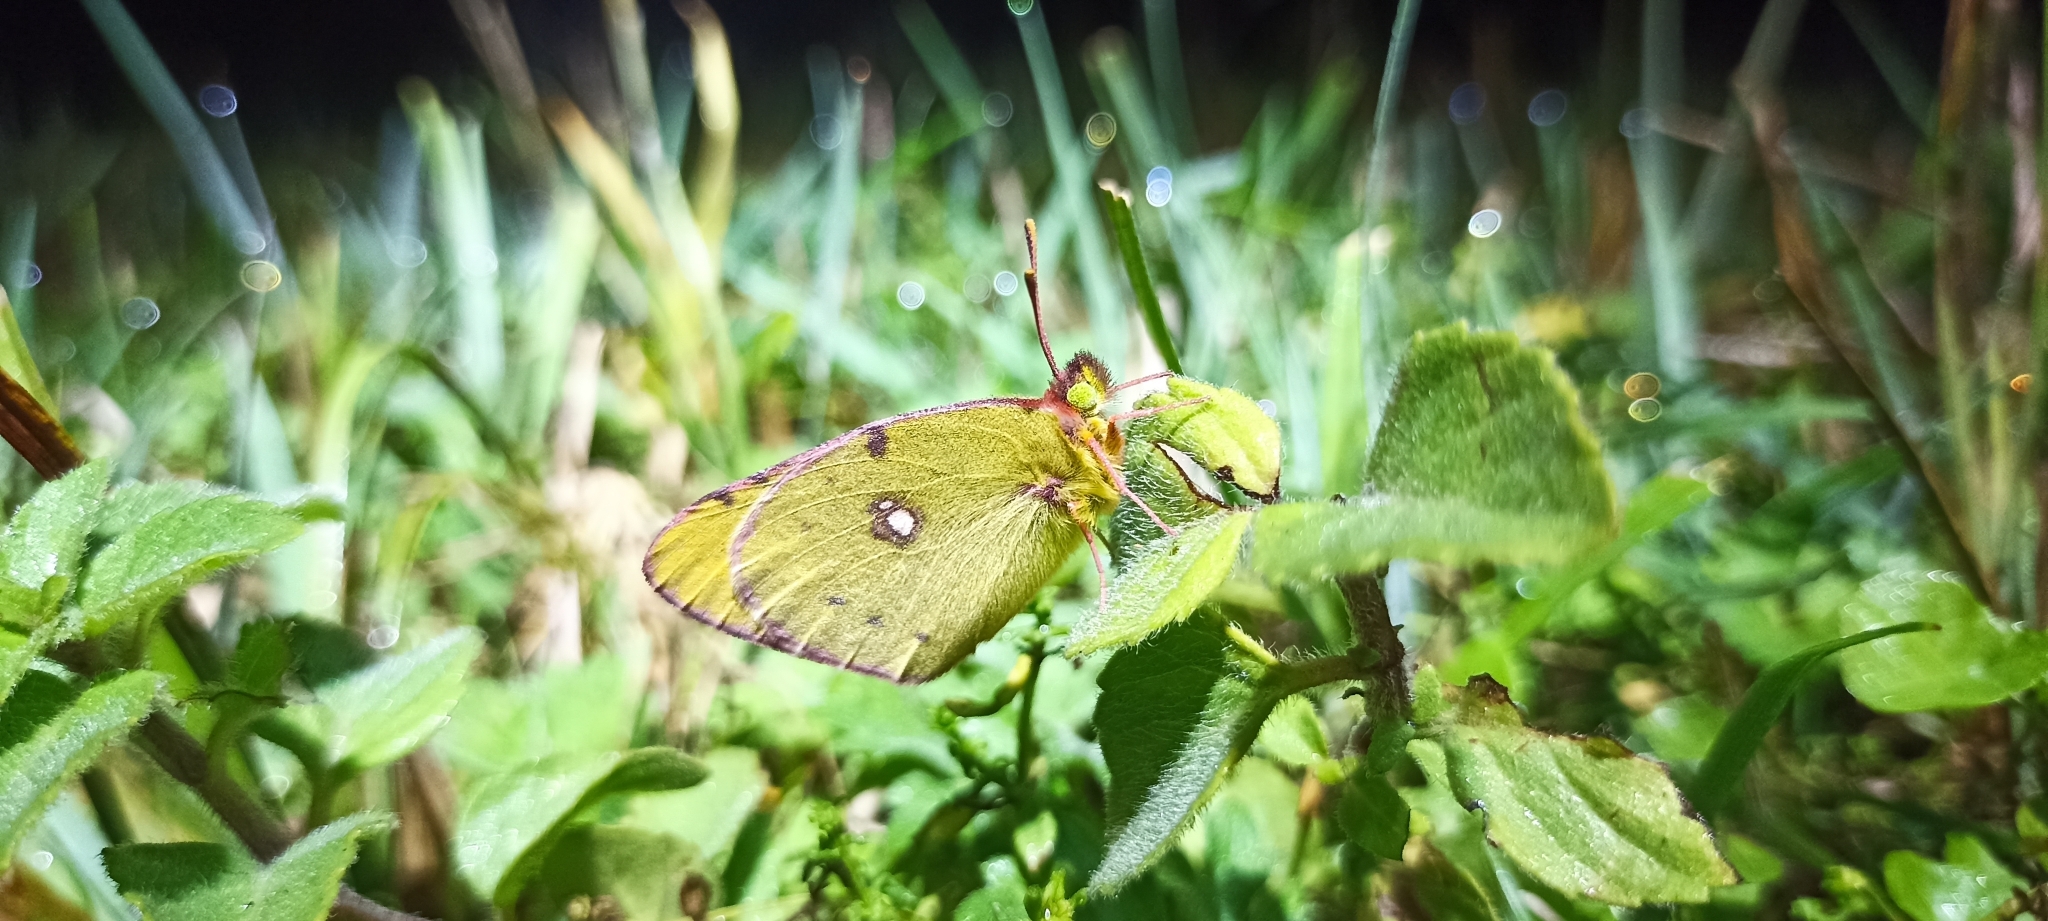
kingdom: Animalia
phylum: Arthropoda
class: Insecta
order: Lepidoptera
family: Pieridae
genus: Colias
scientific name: Colias croceus
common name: Clouded yellow
